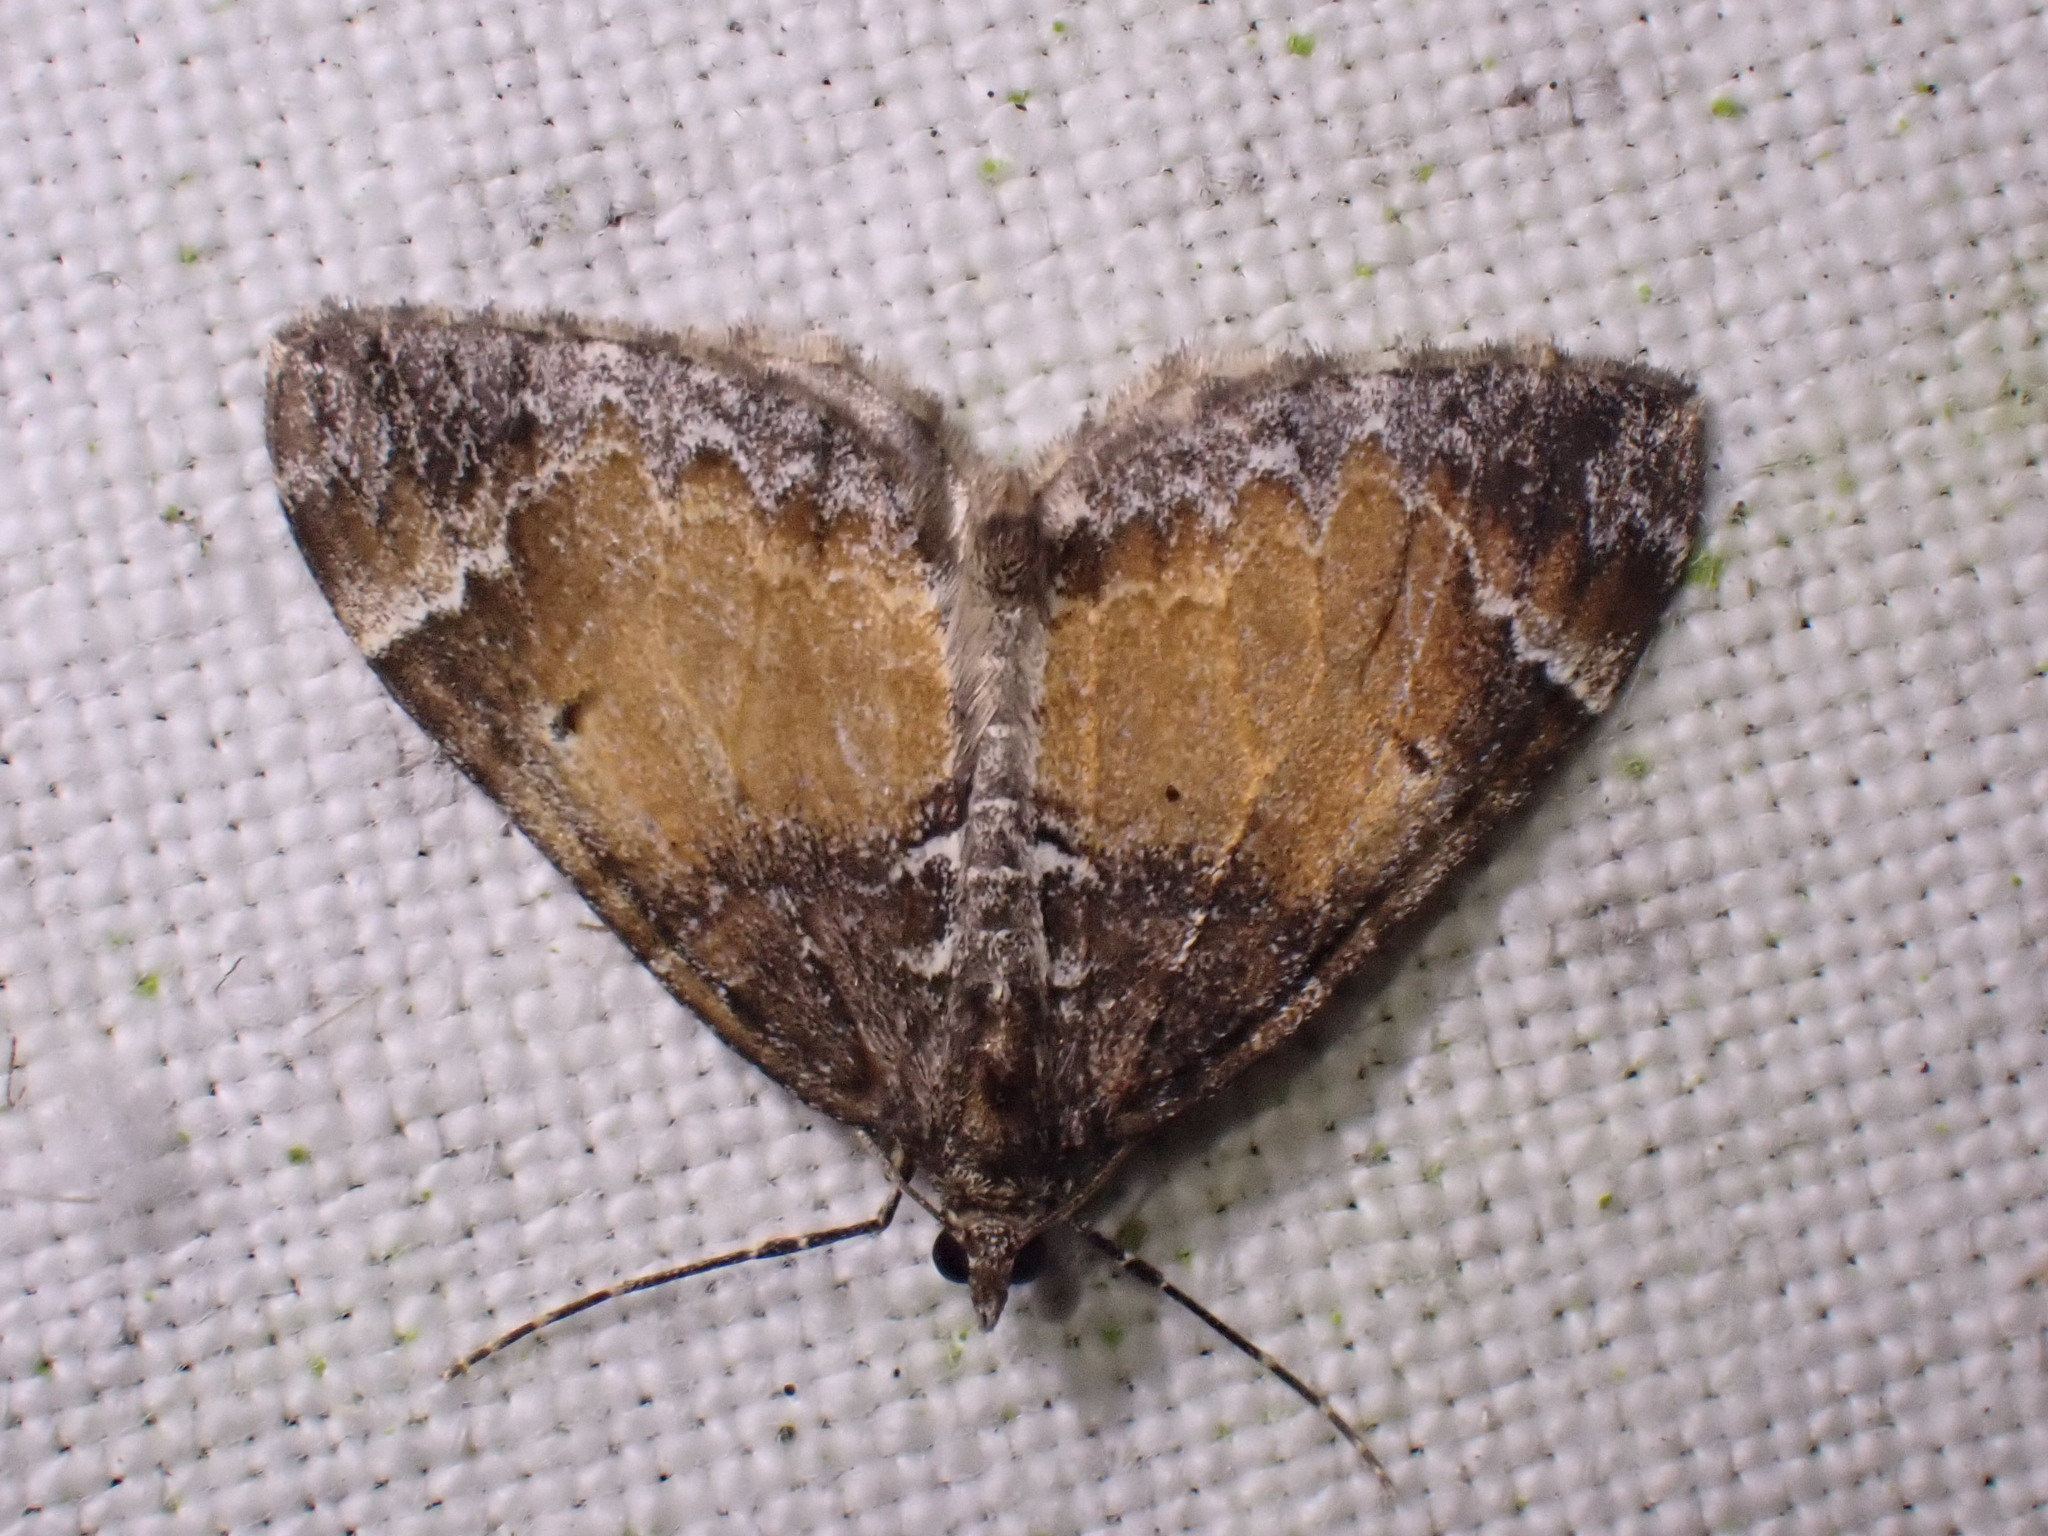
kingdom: Animalia
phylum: Arthropoda
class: Insecta
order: Lepidoptera
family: Geometridae
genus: Dysstroma
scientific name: Dysstroma truncata
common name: Common marbled carpet
